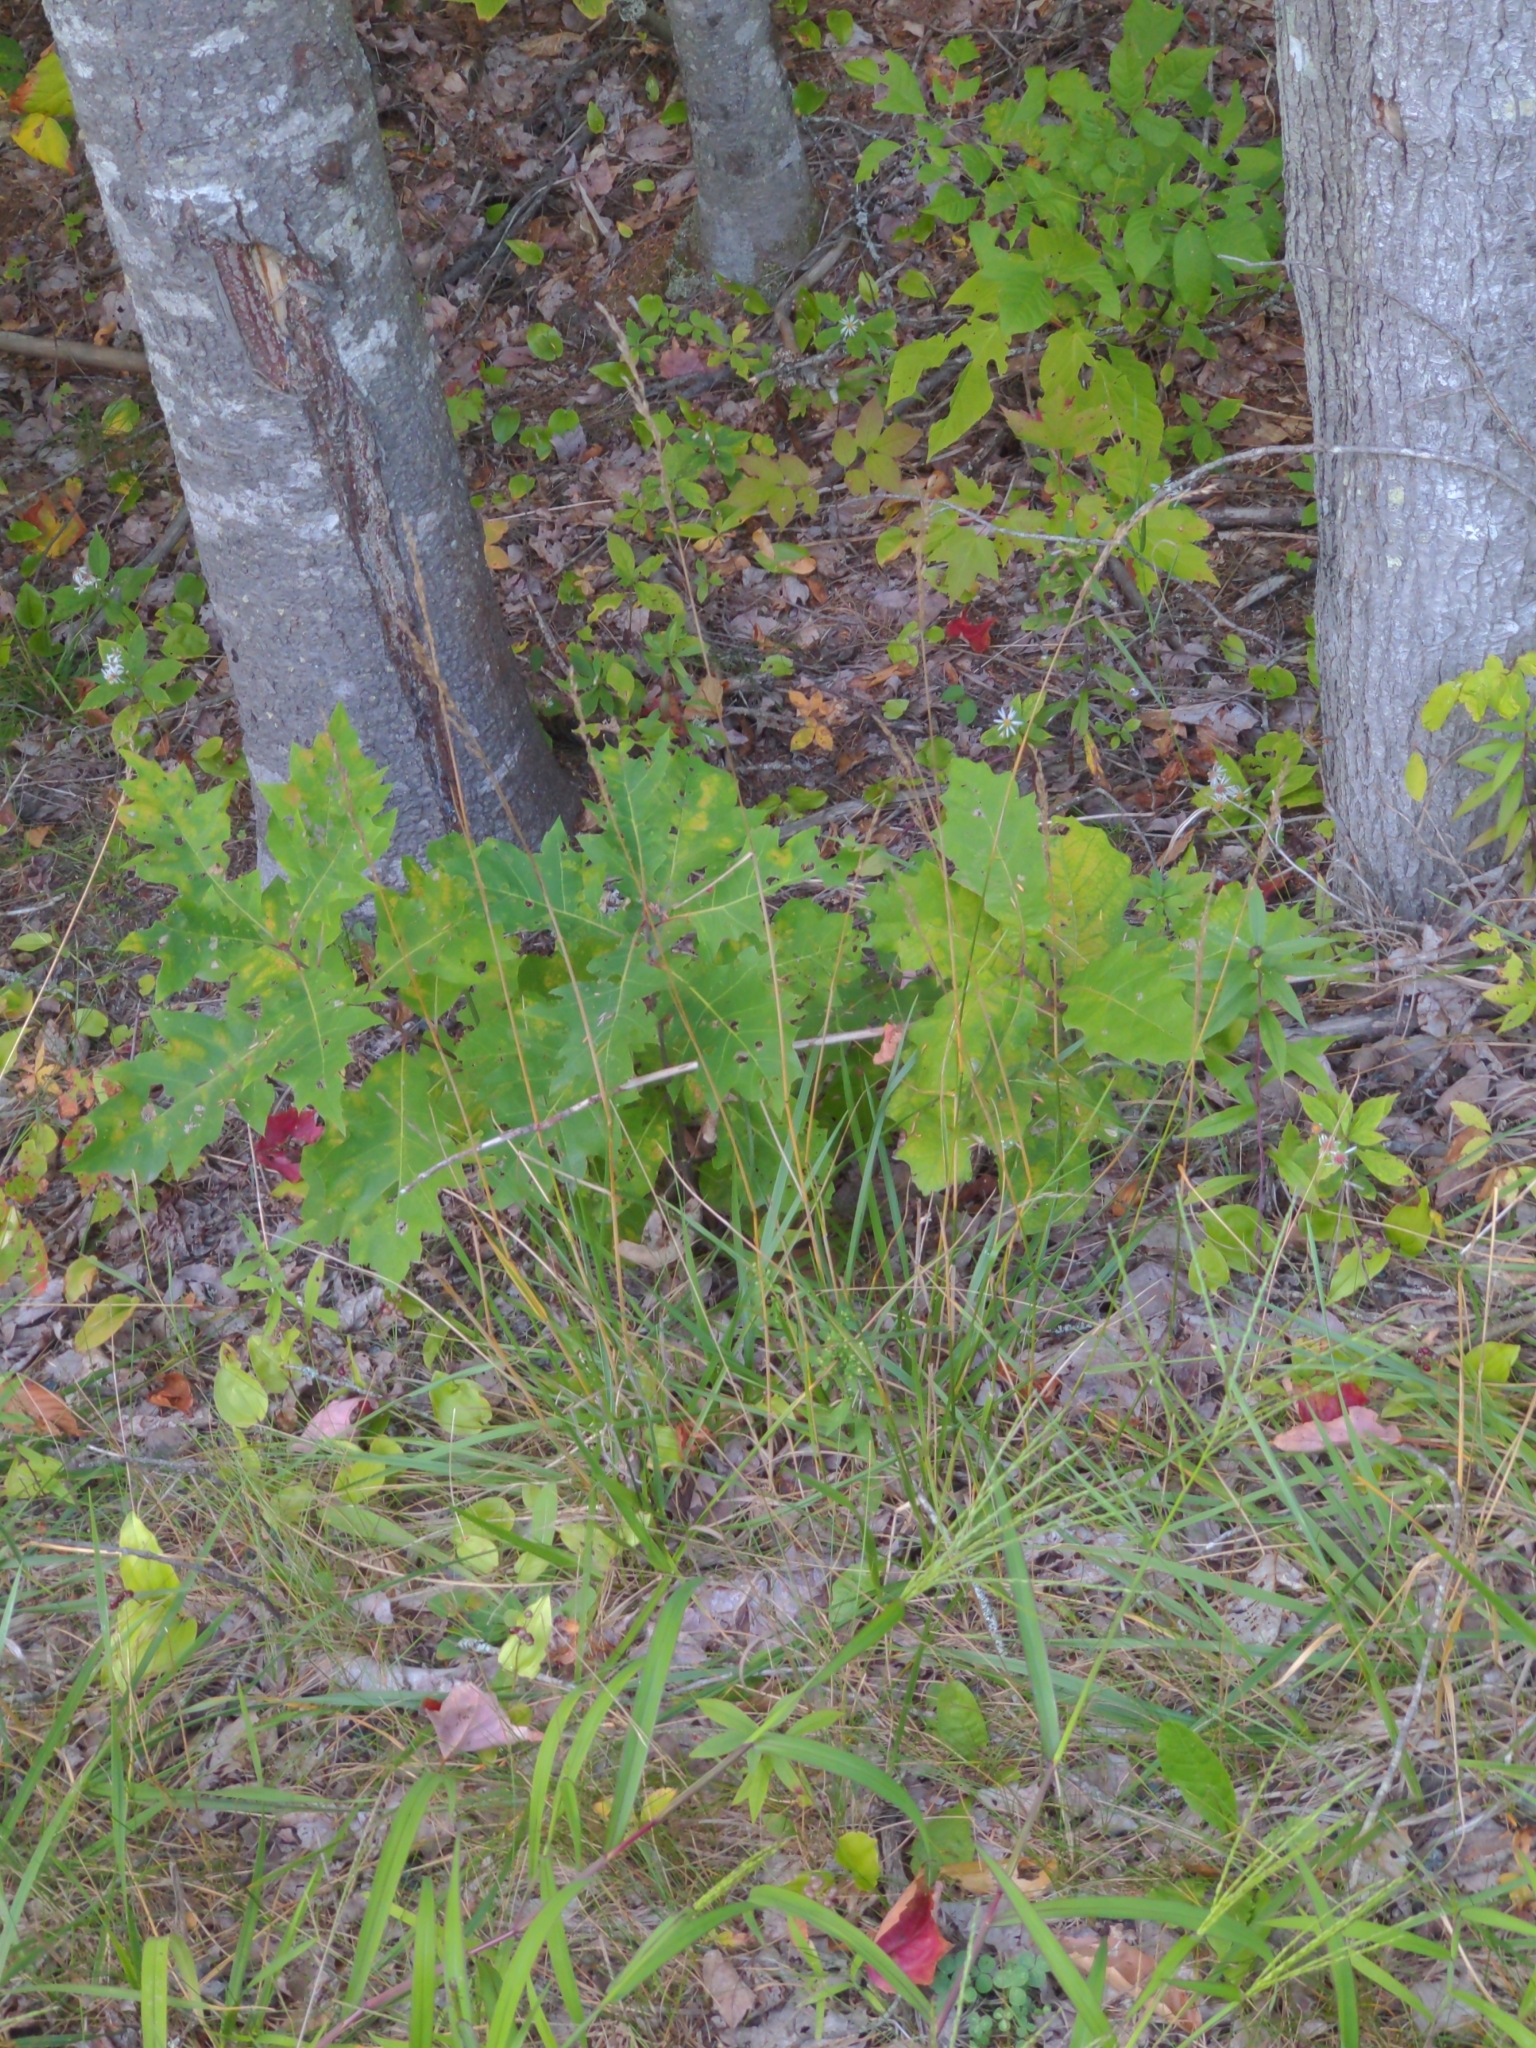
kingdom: Plantae
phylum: Tracheophyta
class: Magnoliopsida
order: Fagales
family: Fagaceae
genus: Quercus
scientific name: Quercus rubra
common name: Red oak
